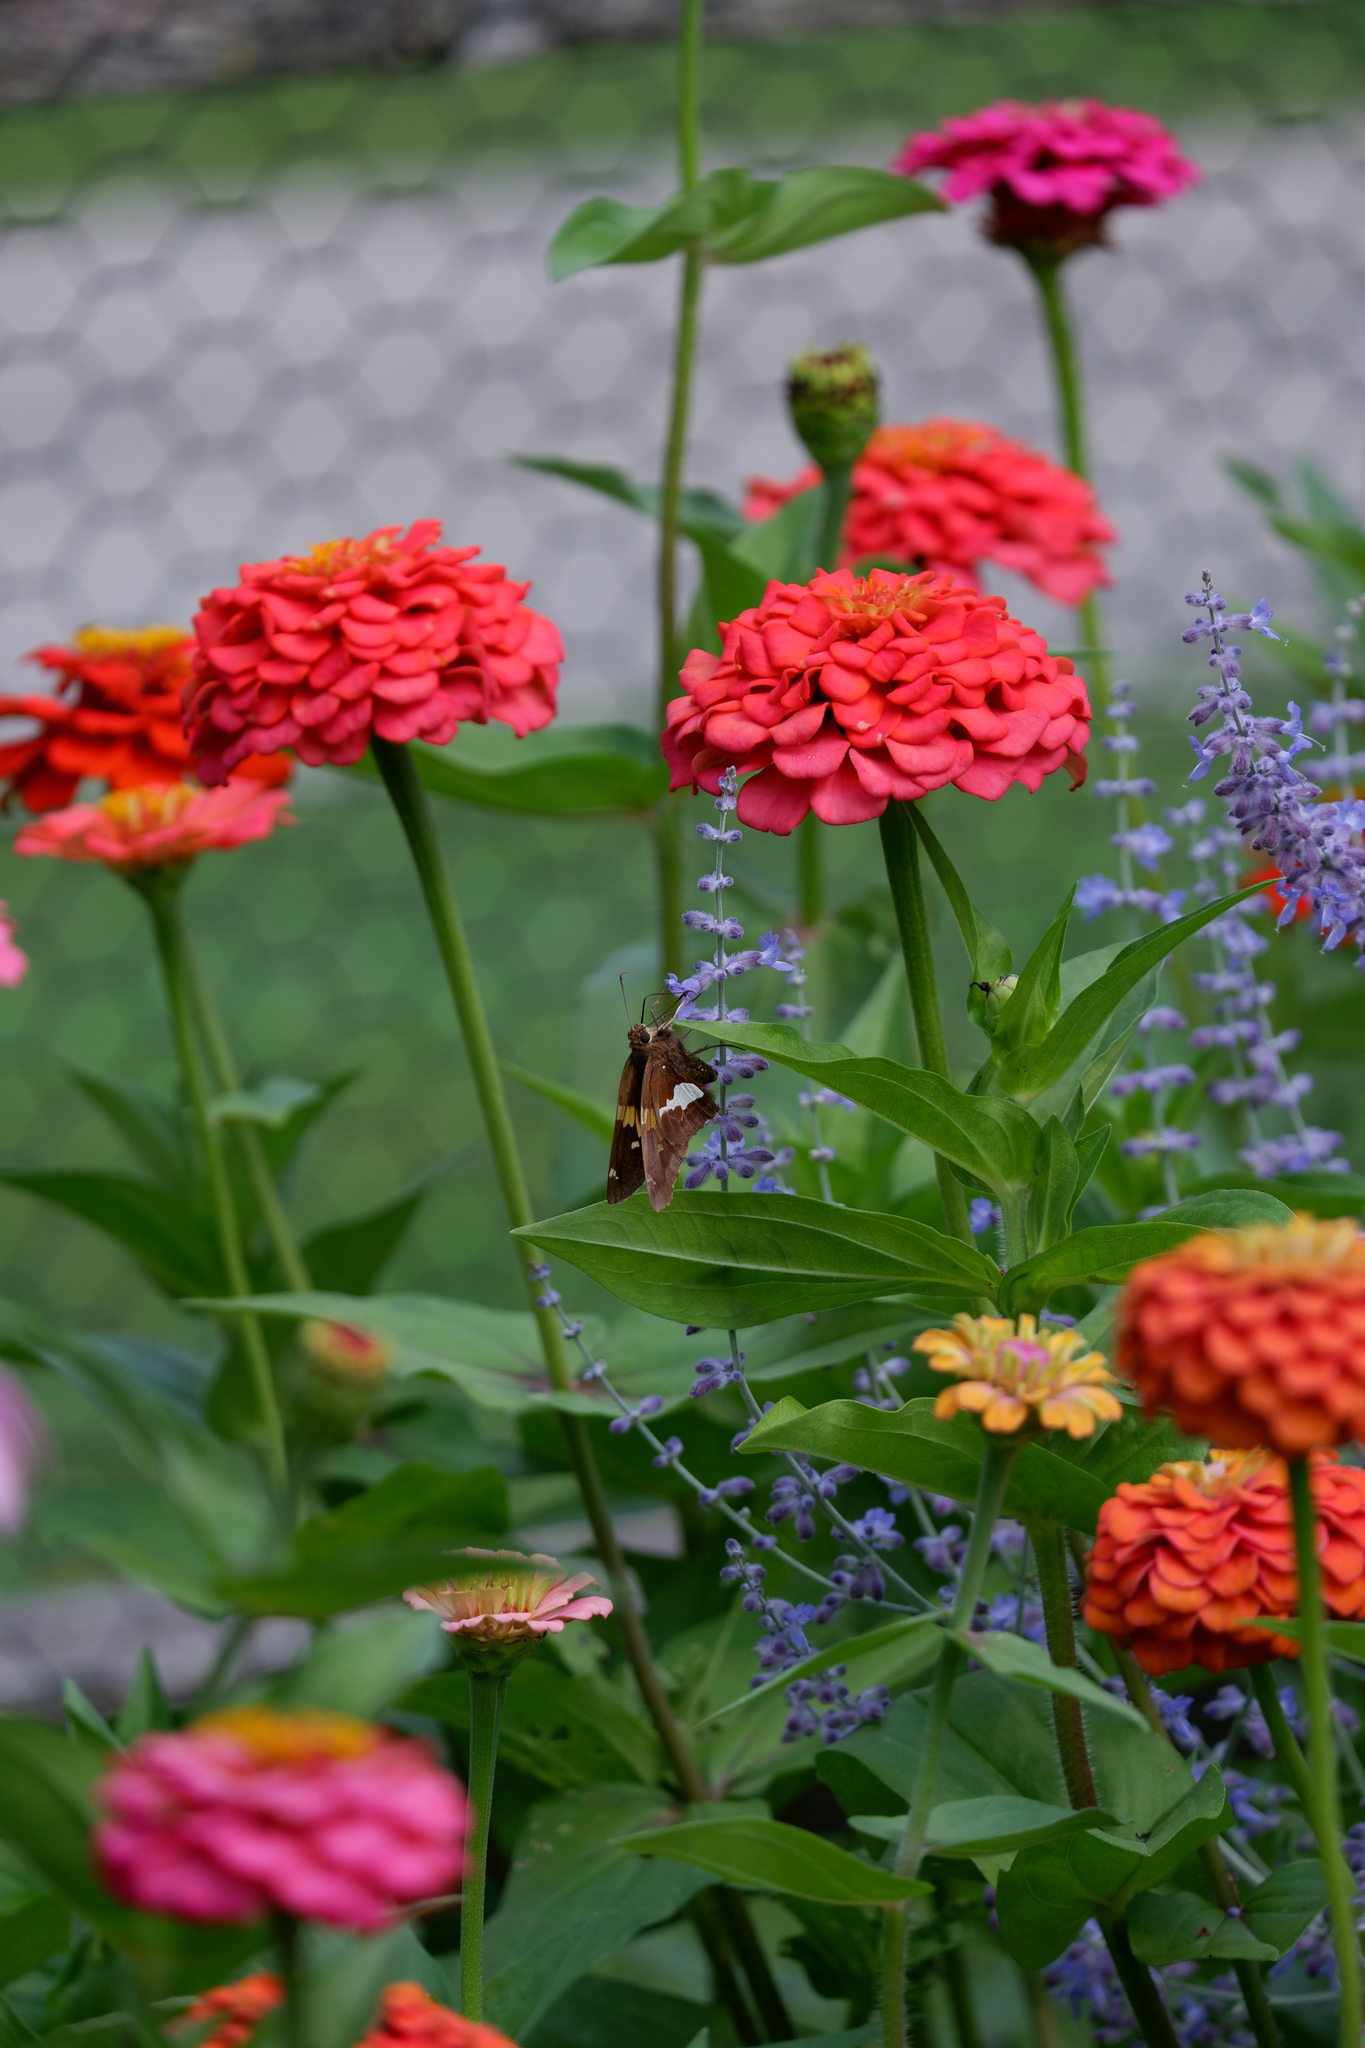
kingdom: Animalia
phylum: Arthropoda
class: Insecta
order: Lepidoptera
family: Hesperiidae
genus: Epargyreus
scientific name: Epargyreus clarus
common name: Silver-spotted skipper
